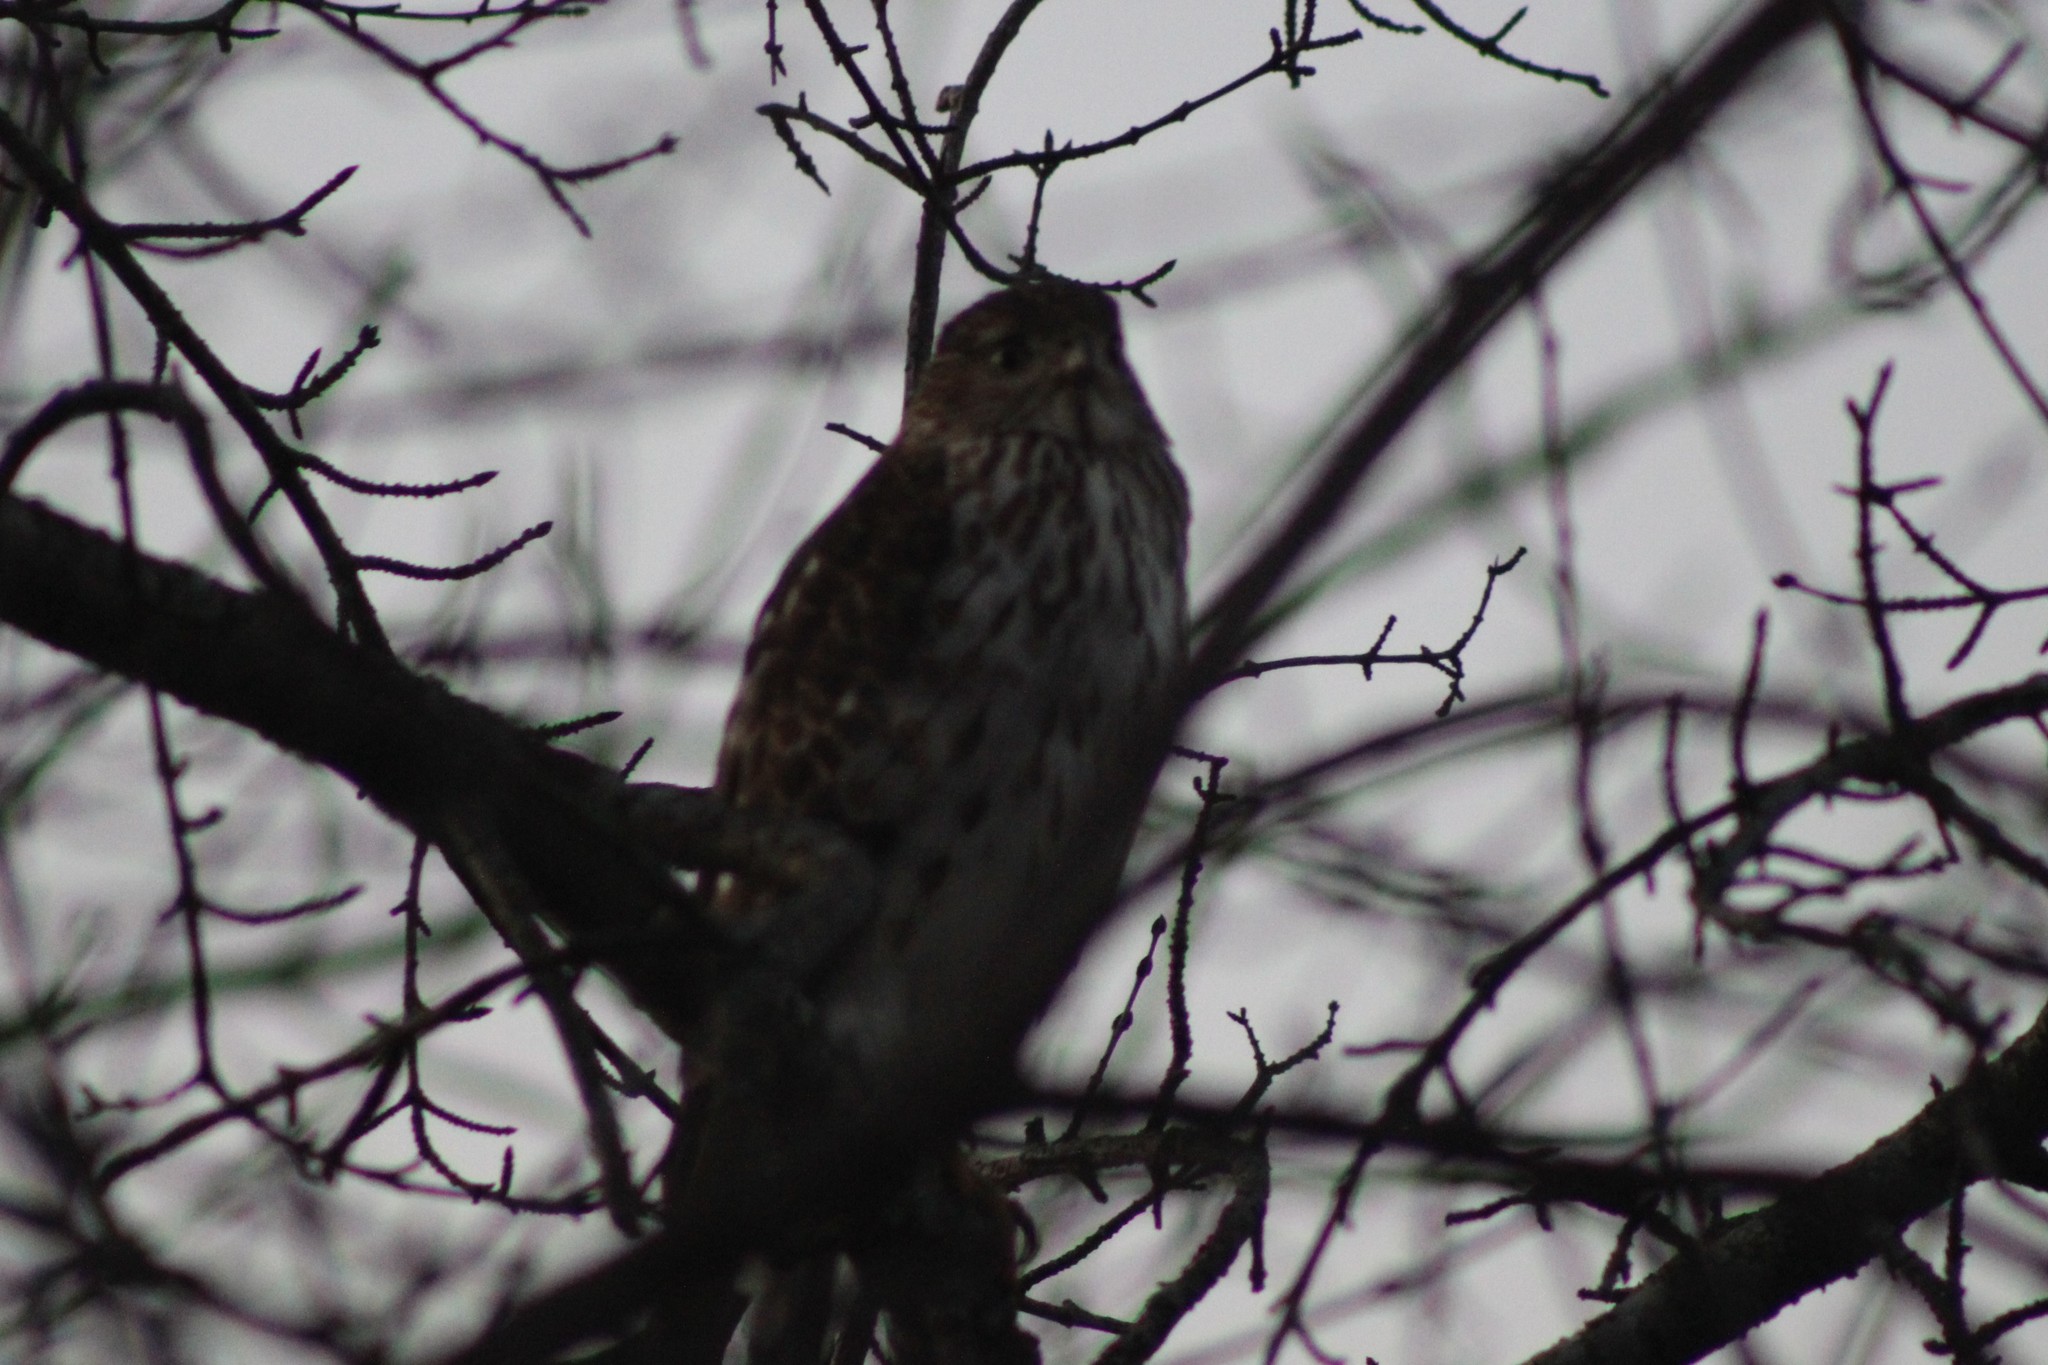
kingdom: Animalia
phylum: Chordata
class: Aves
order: Accipitriformes
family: Accipitridae
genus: Accipiter
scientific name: Accipiter cooperii
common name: Cooper's hawk
